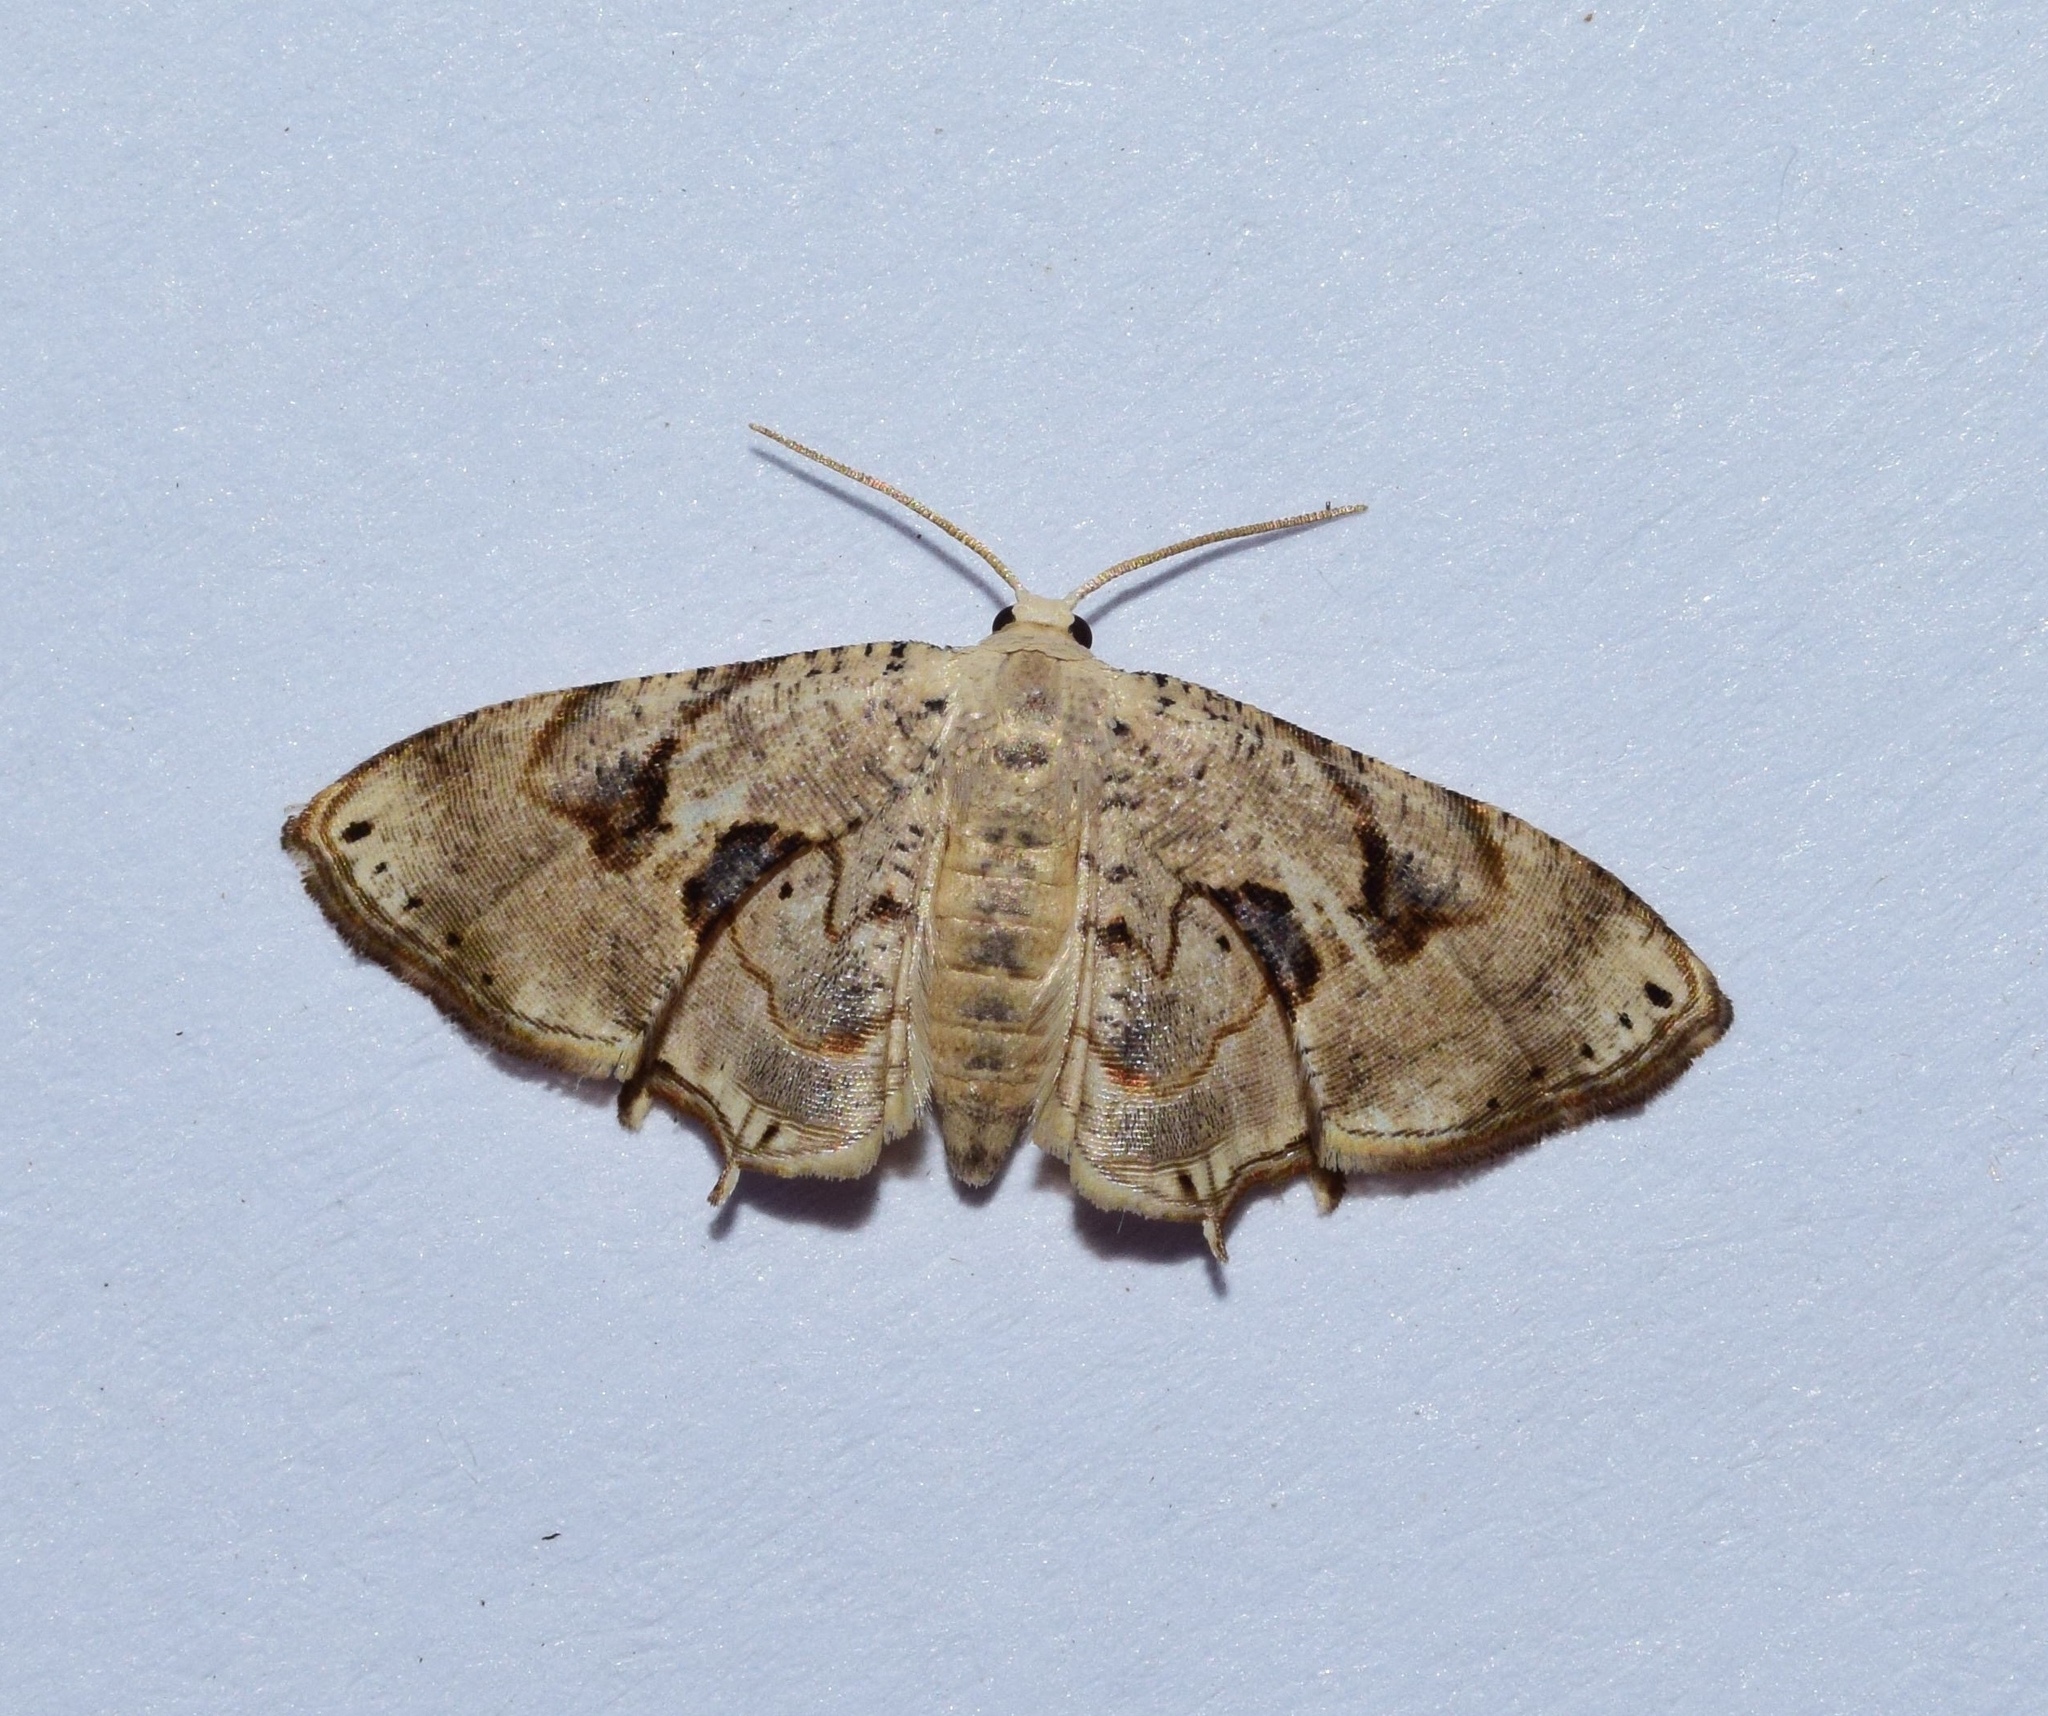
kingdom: Animalia
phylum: Arthropoda
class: Insecta
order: Lepidoptera
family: Uraniidae
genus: Leucoplema
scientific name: Leucoplema dohertyii
